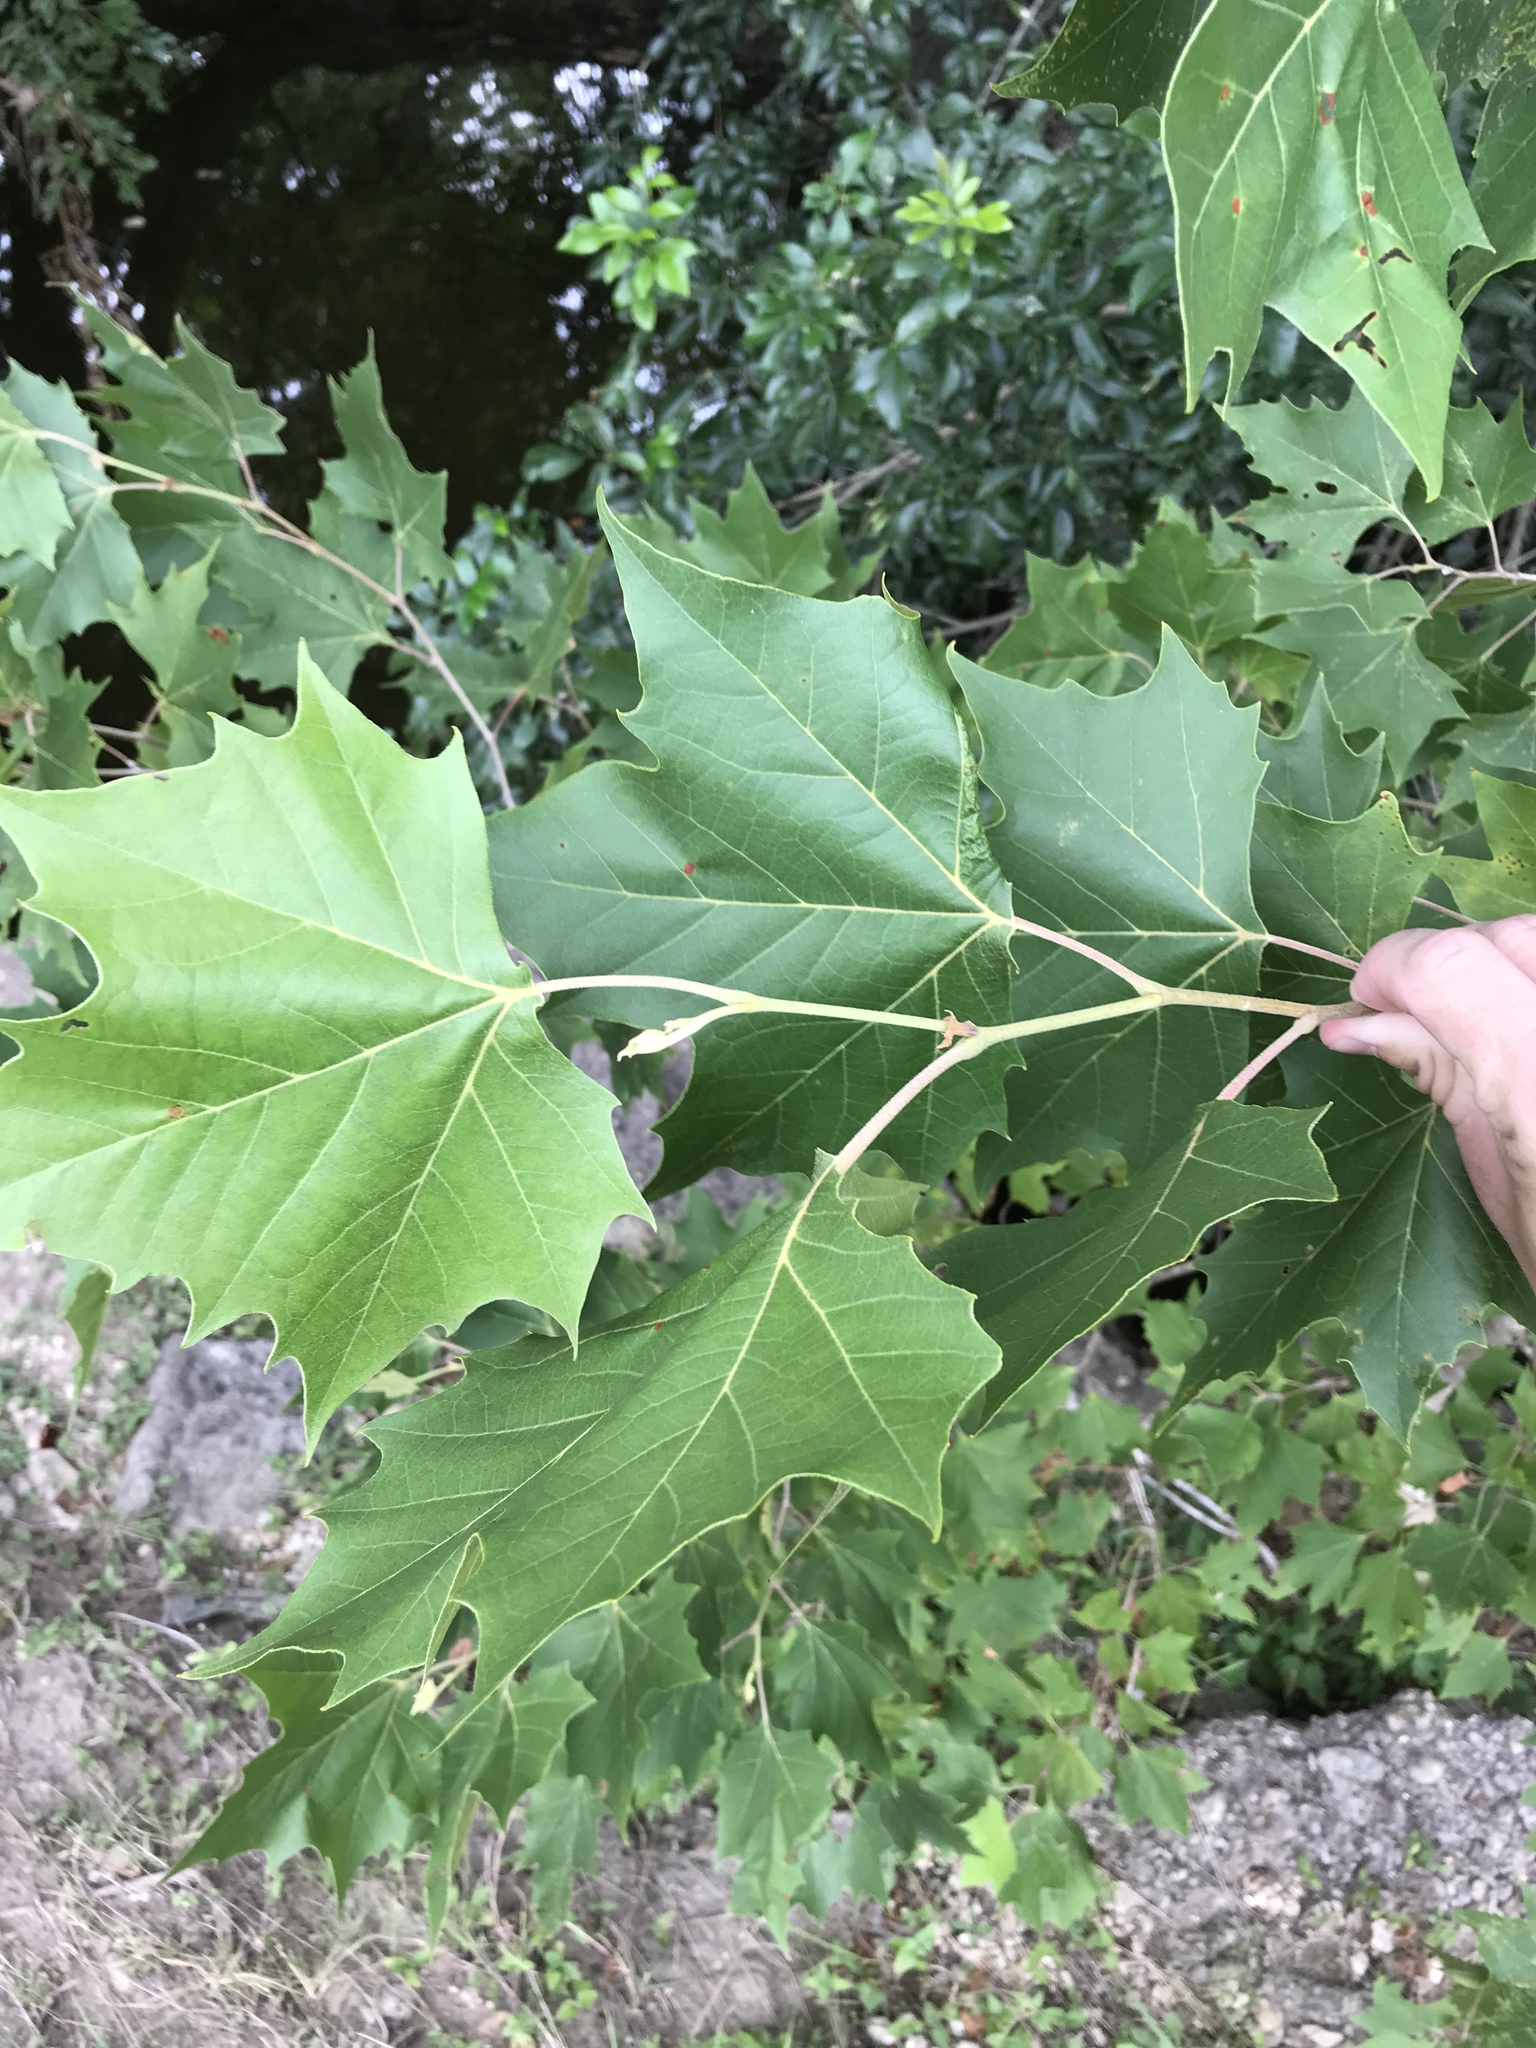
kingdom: Plantae
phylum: Tracheophyta
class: Magnoliopsida
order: Proteales
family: Platanaceae
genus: Platanus
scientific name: Platanus occidentalis
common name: American sycamore
